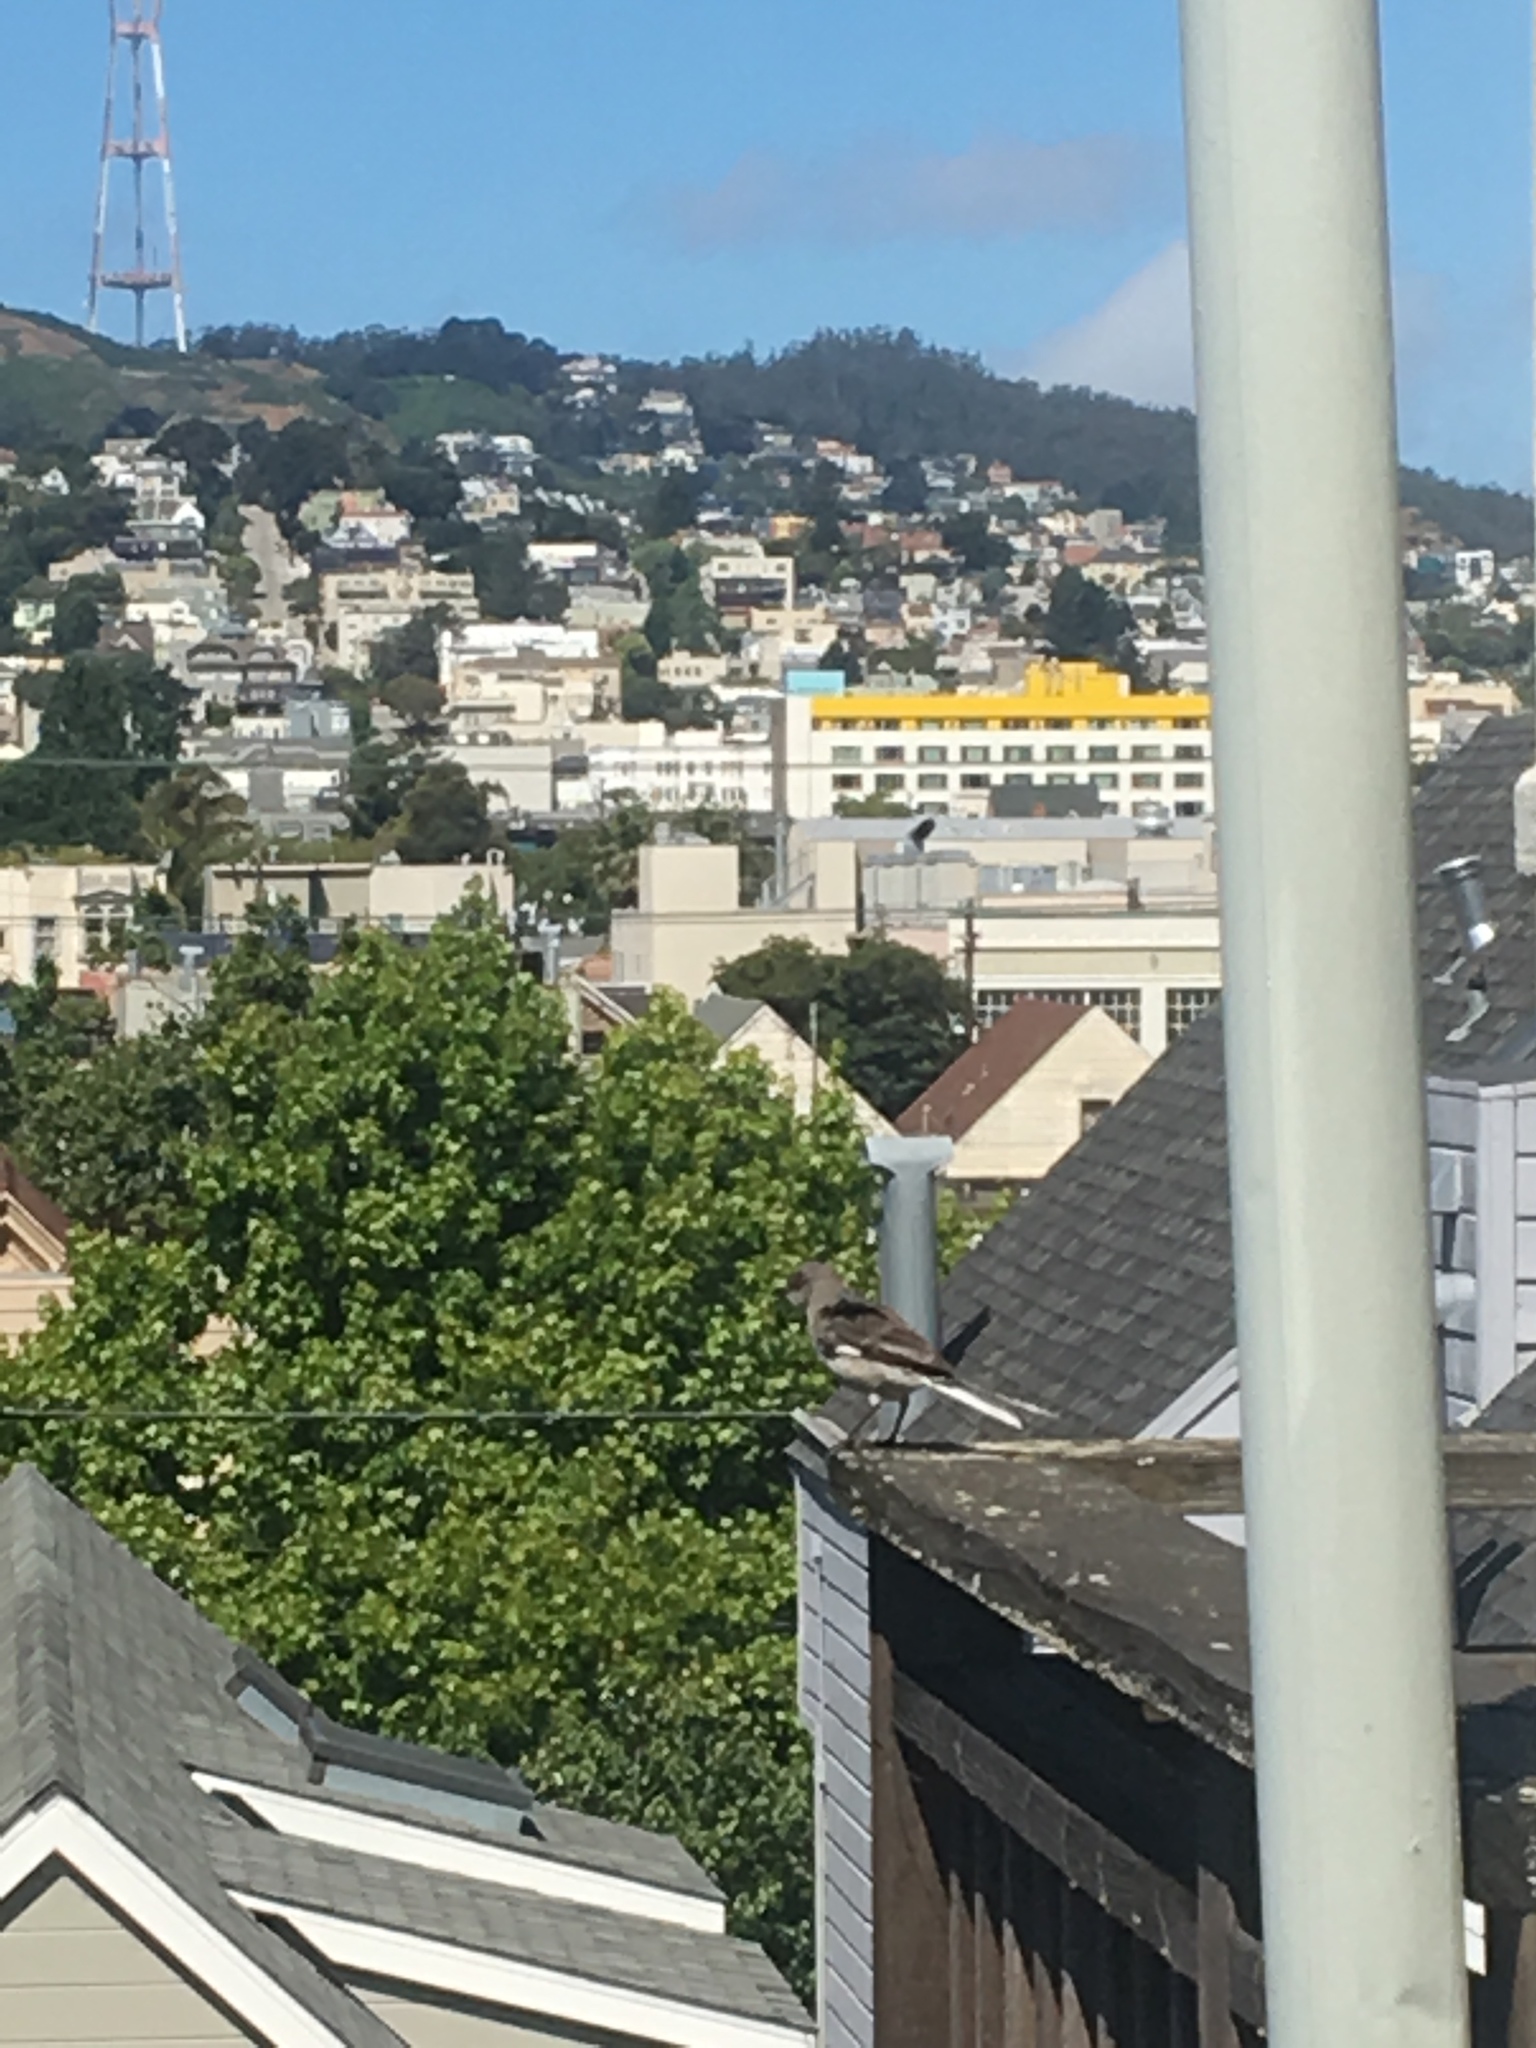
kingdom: Animalia
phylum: Chordata
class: Aves
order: Passeriformes
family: Mimidae
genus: Mimus
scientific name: Mimus polyglottos
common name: Northern mockingbird
